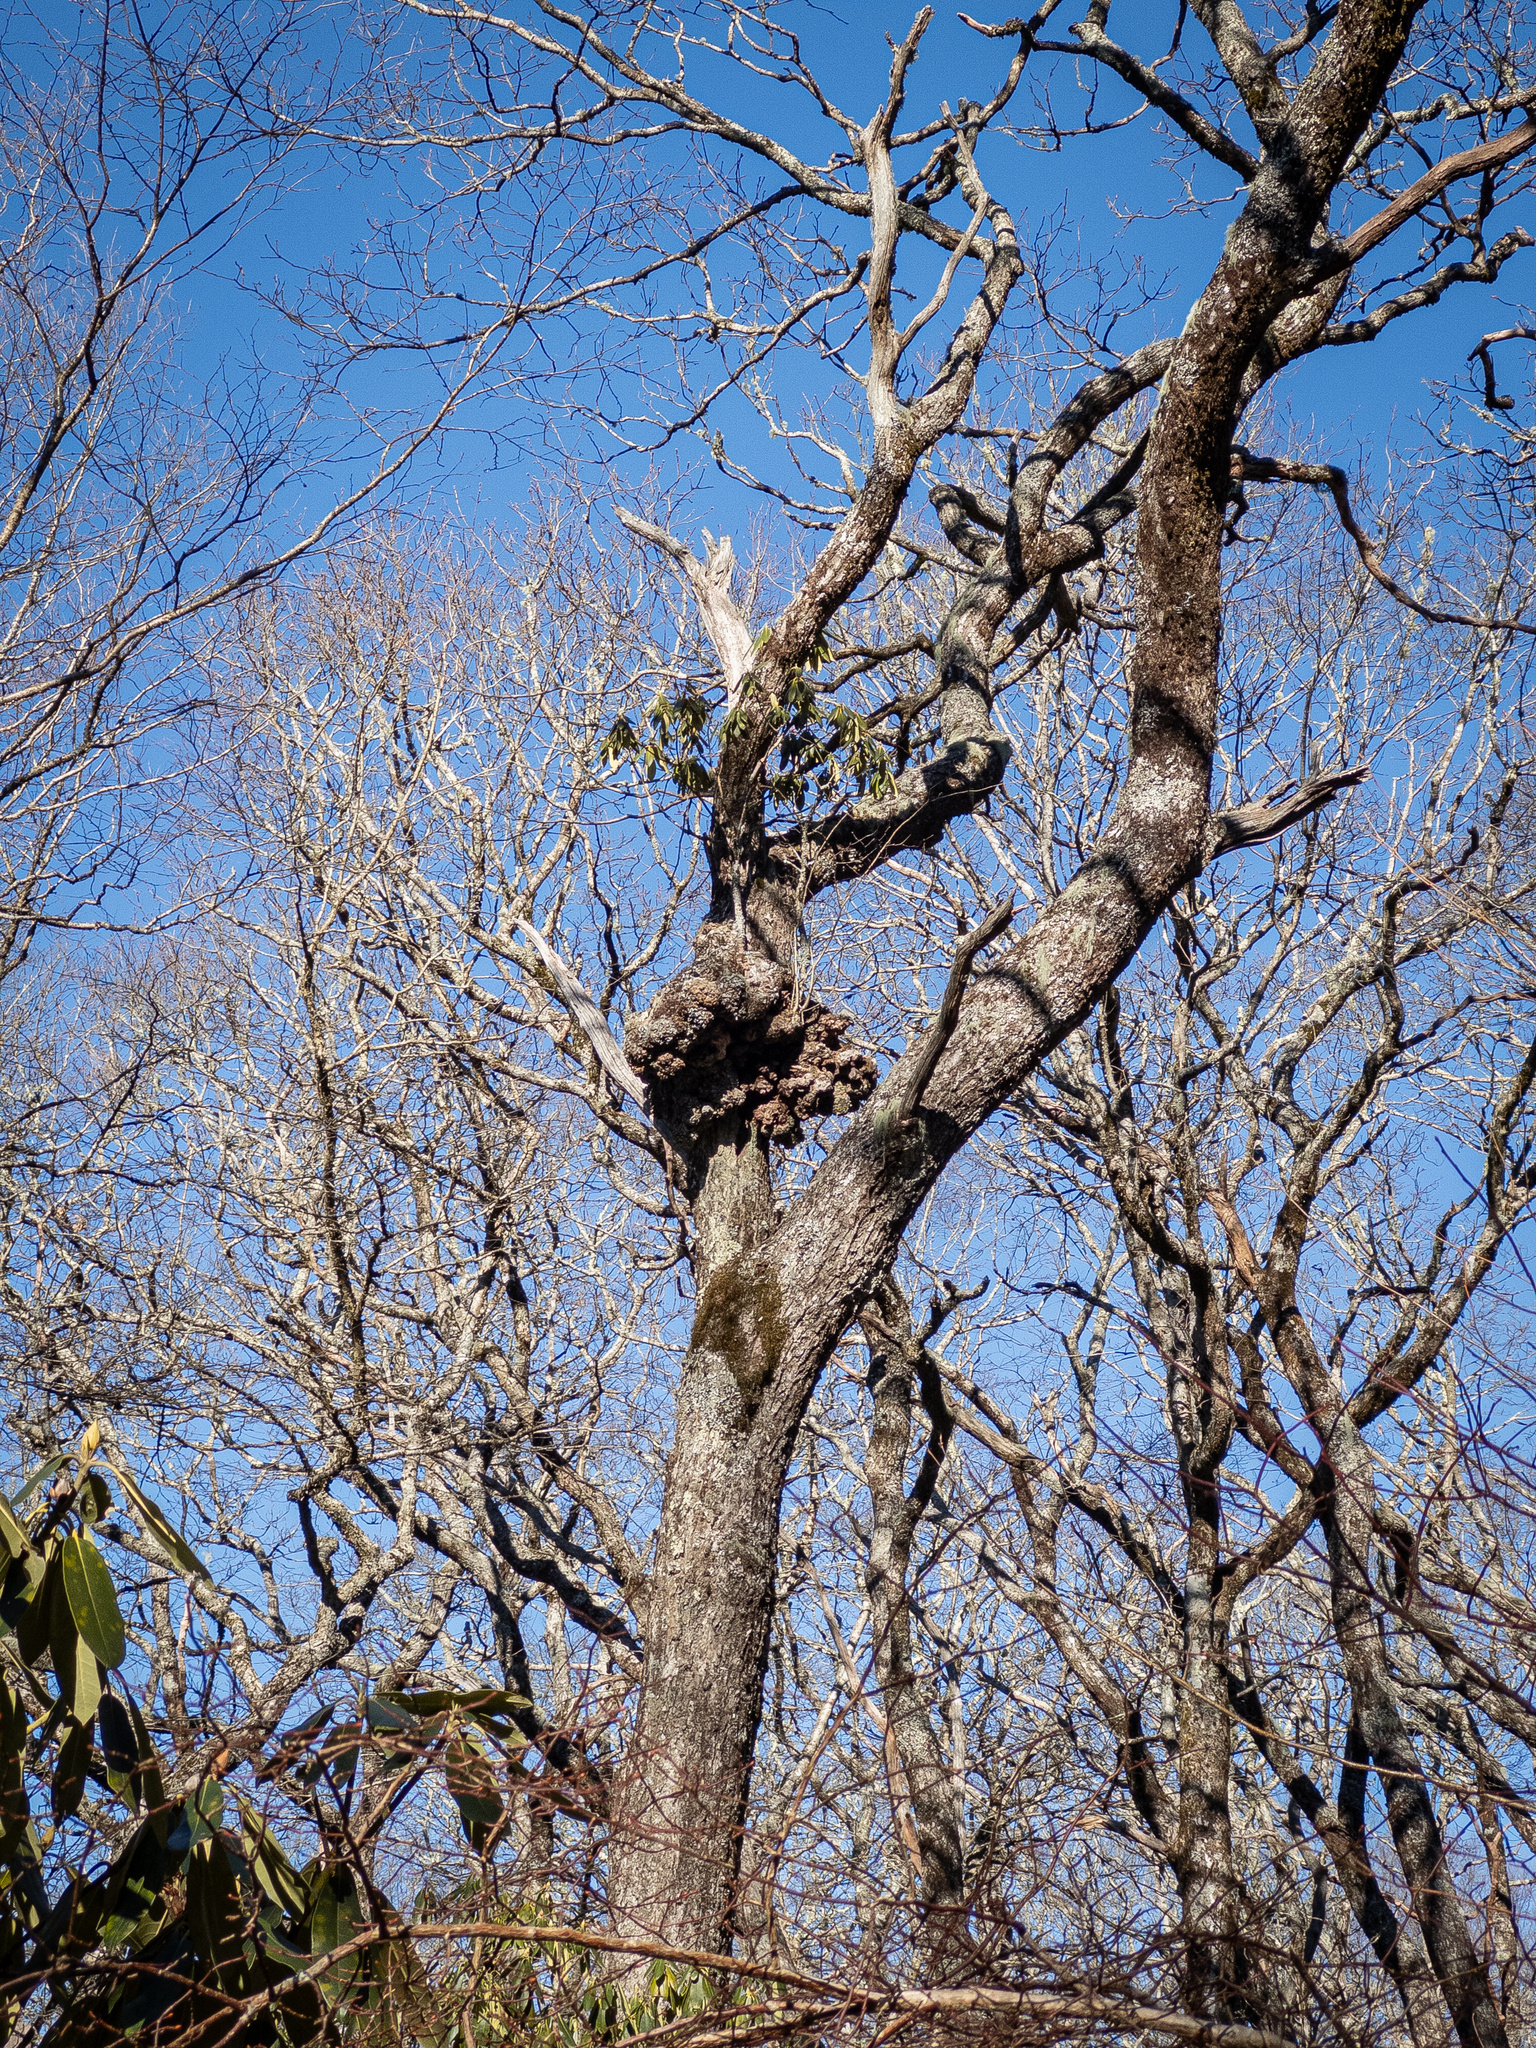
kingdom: Plantae
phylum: Tracheophyta
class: Magnoliopsida
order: Ericales
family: Ericaceae
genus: Rhododendron
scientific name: Rhododendron maximum
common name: Great rhododendron
